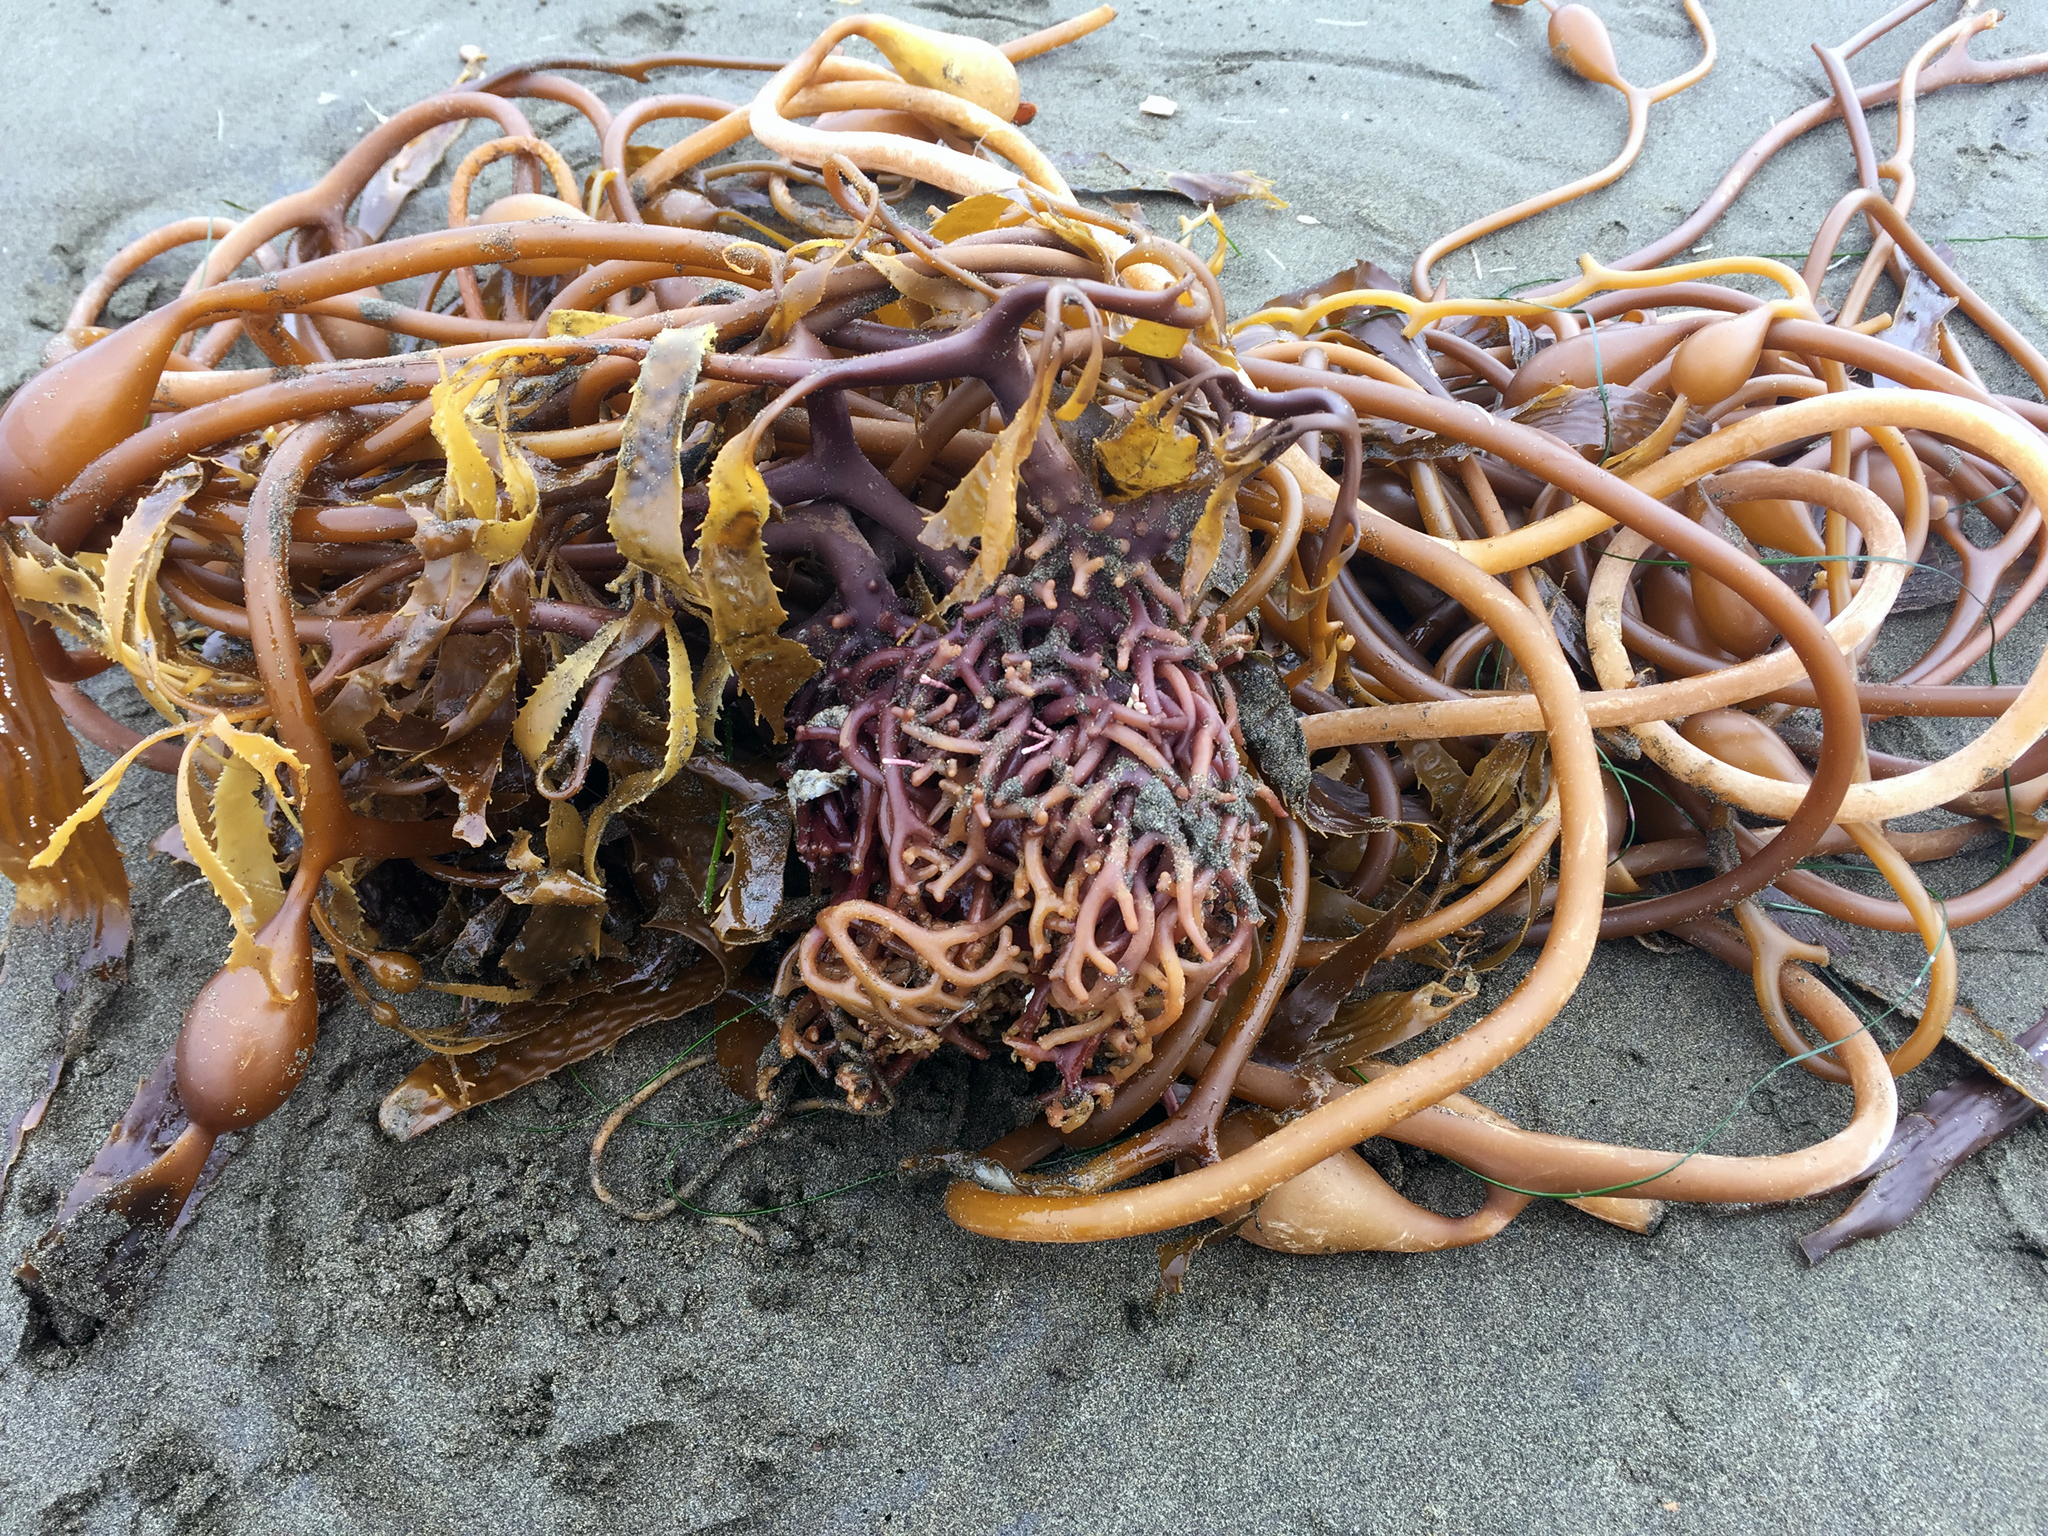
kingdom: Chromista
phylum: Ochrophyta
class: Phaeophyceae
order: Laminariales
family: Laminariaceae
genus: Macrocystis
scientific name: Macrocystis pyrifera
